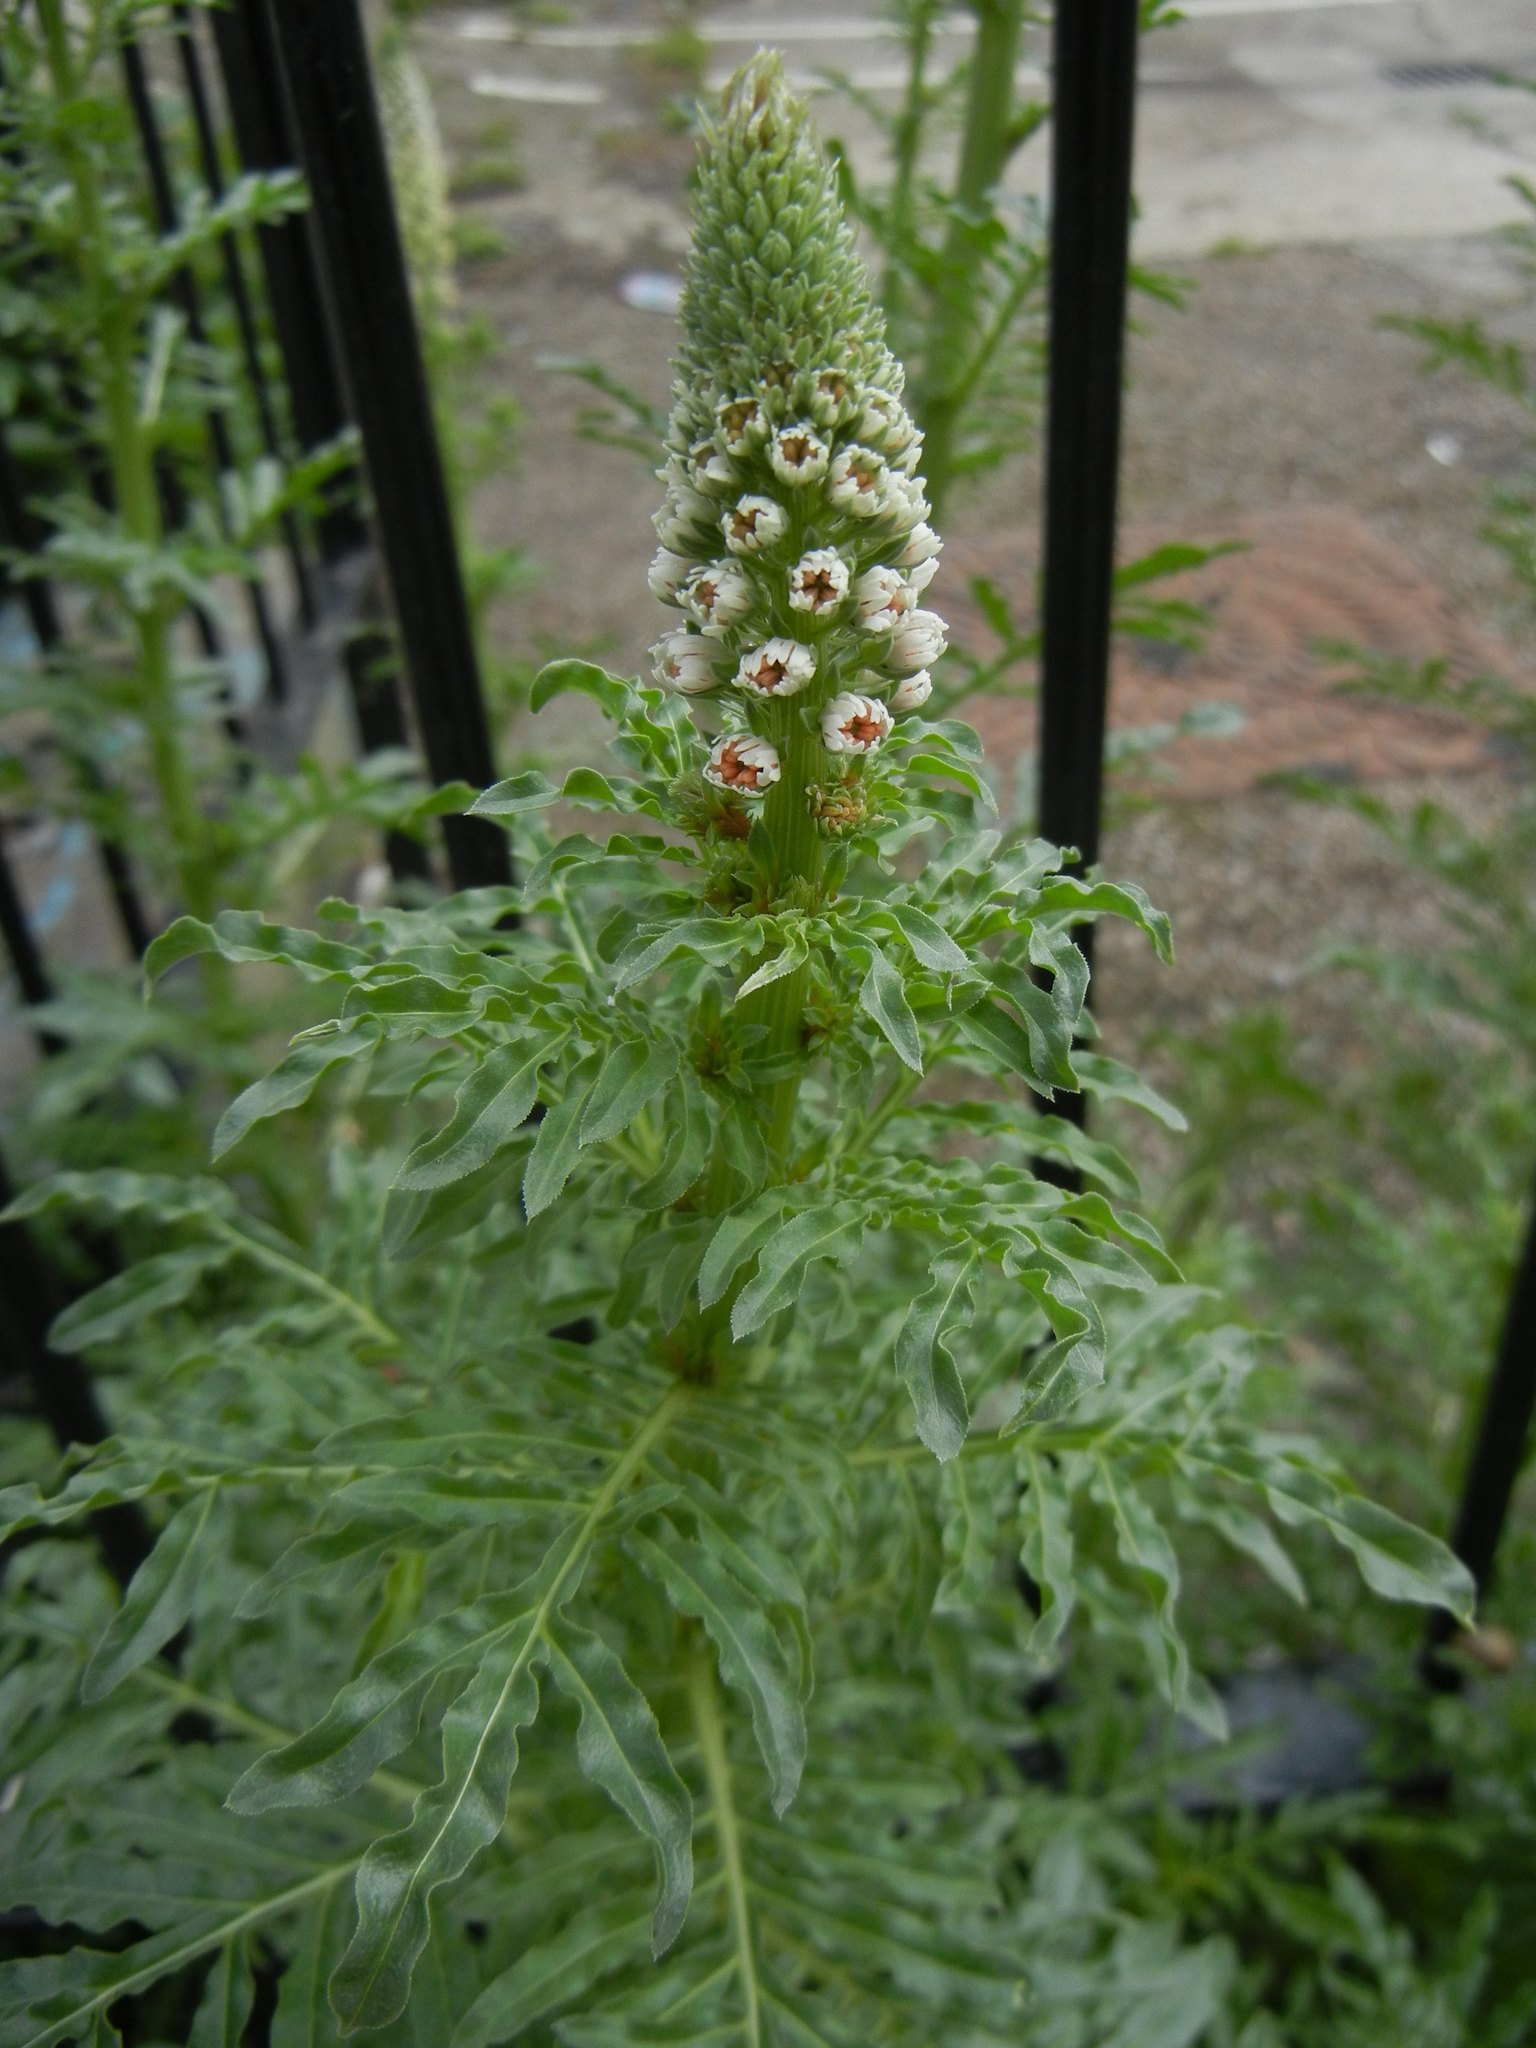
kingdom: Plantae
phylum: Tracheophyta
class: Magnoliopsida
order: Brassicales
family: Resedaceae
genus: Reseda
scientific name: Reseda alba
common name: White mignonette
